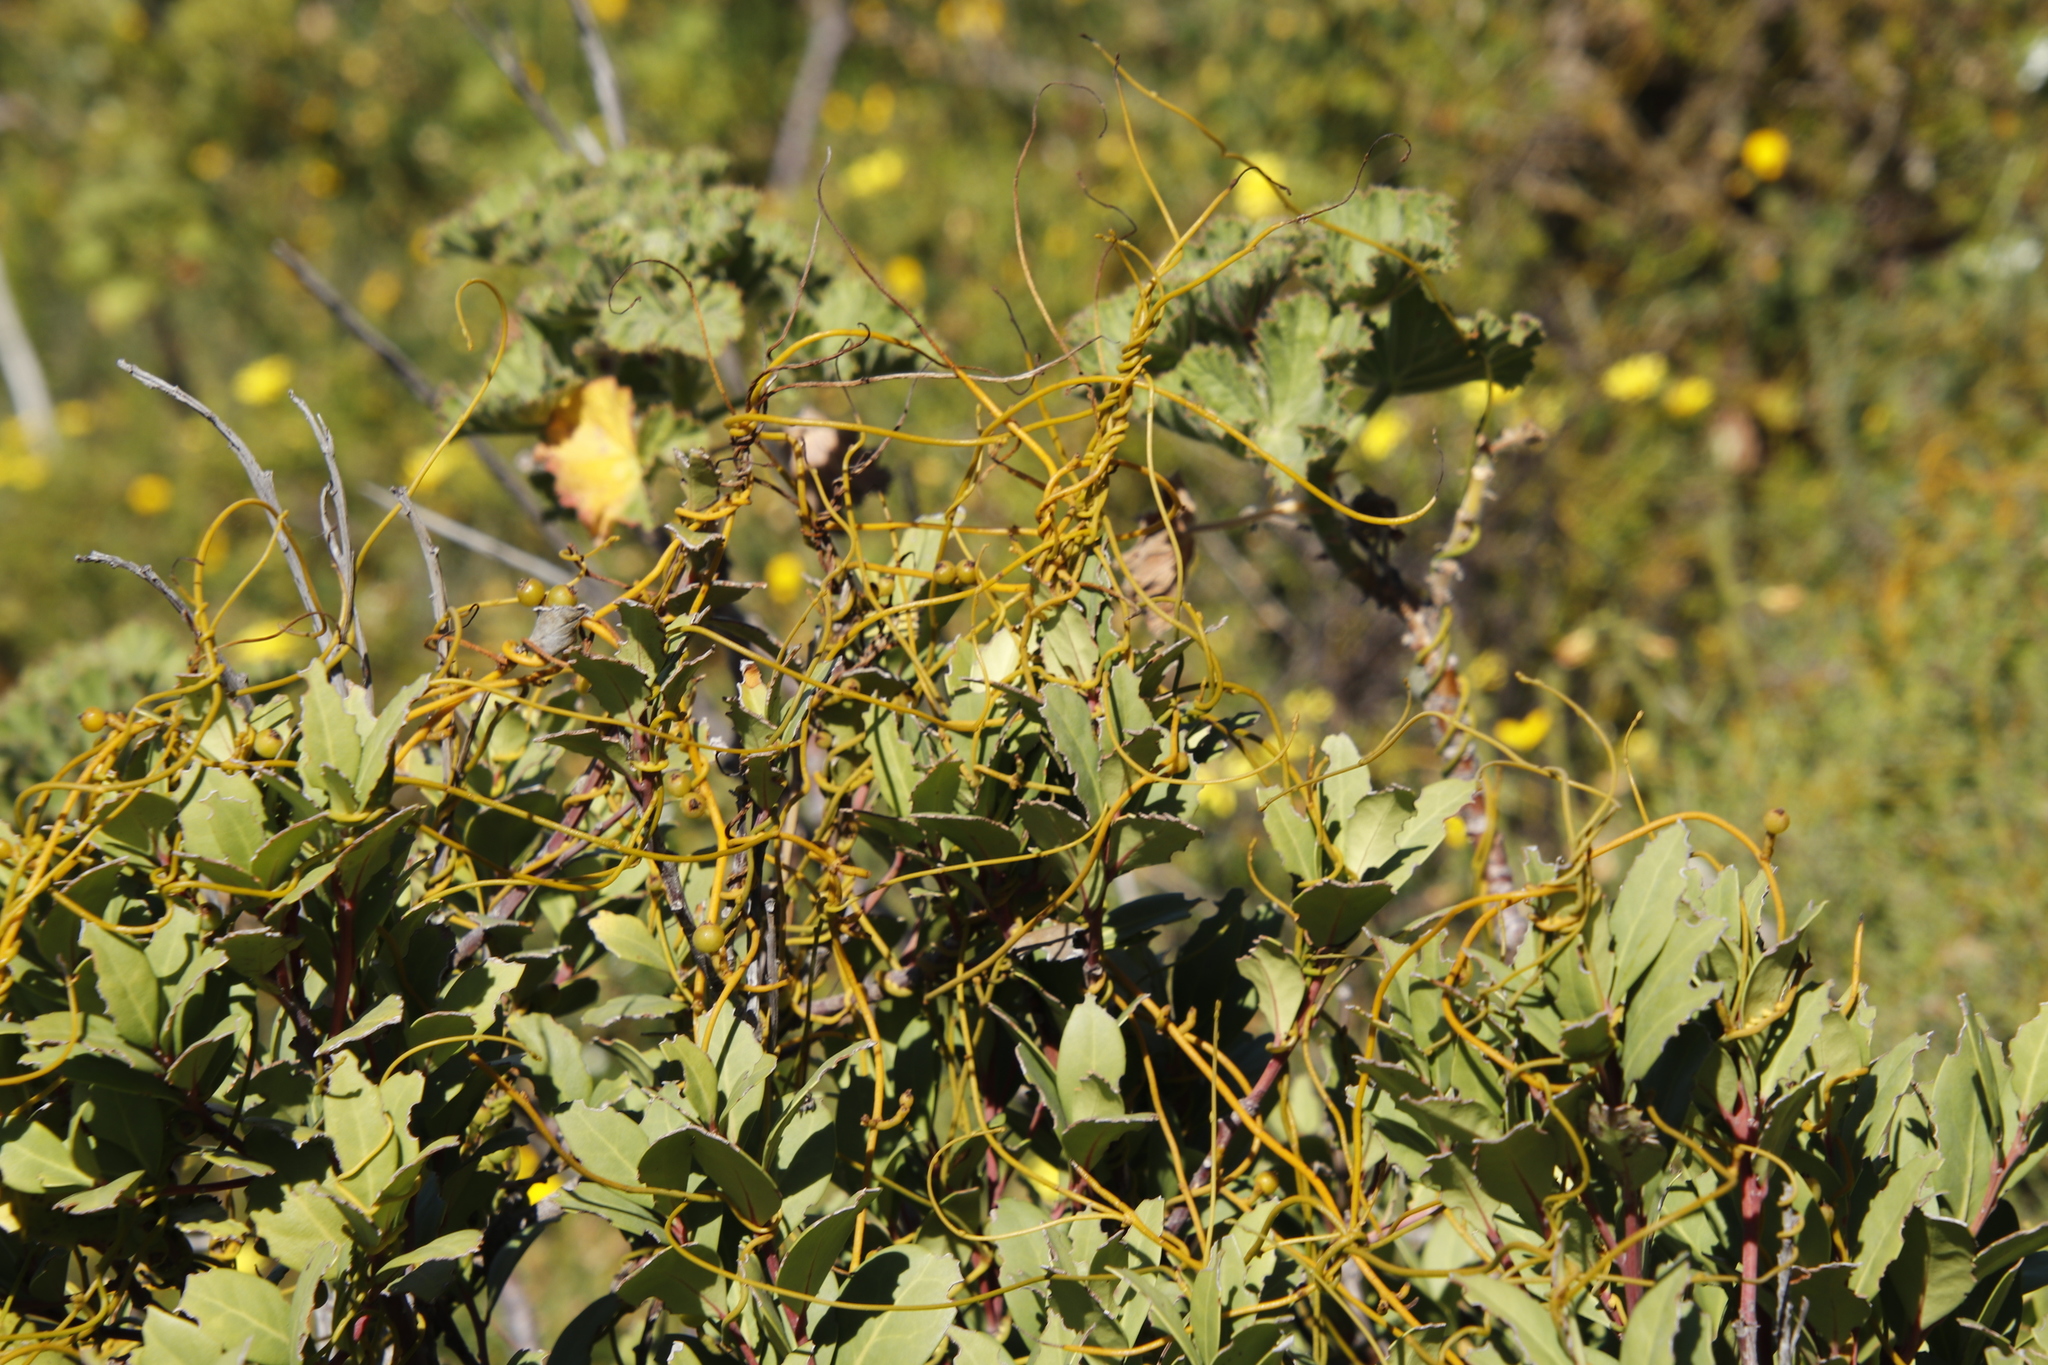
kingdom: Plantae
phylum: Tracheophyta
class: Magnoliopsida
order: Laurales
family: Lauraceae
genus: Cassytha
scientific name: Cassytha ciliolata
